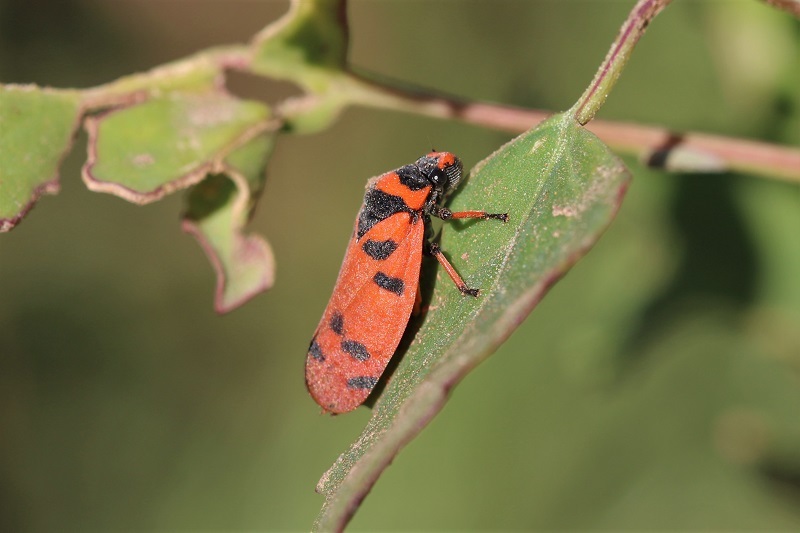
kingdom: Animalia
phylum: Arthropoda
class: Insecta
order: Hemiptera
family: Cercopidae
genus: Locris
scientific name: Locris arithmetica
